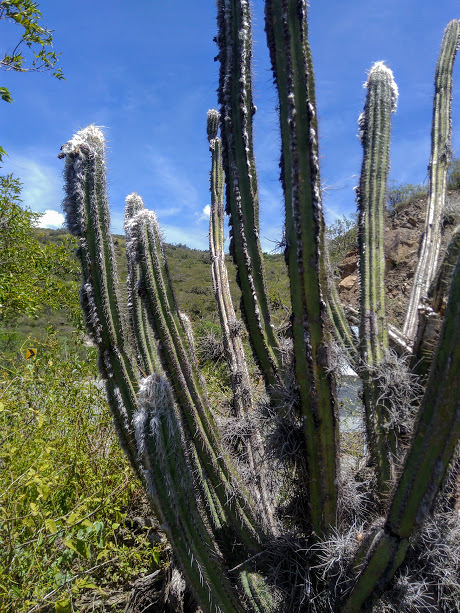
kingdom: Plantae
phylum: Tracheophyta
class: Magnoliopsida
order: Caryophyllales
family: Cactaceae
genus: Pilosocereus
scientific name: Pilosocereus lanuginosus
